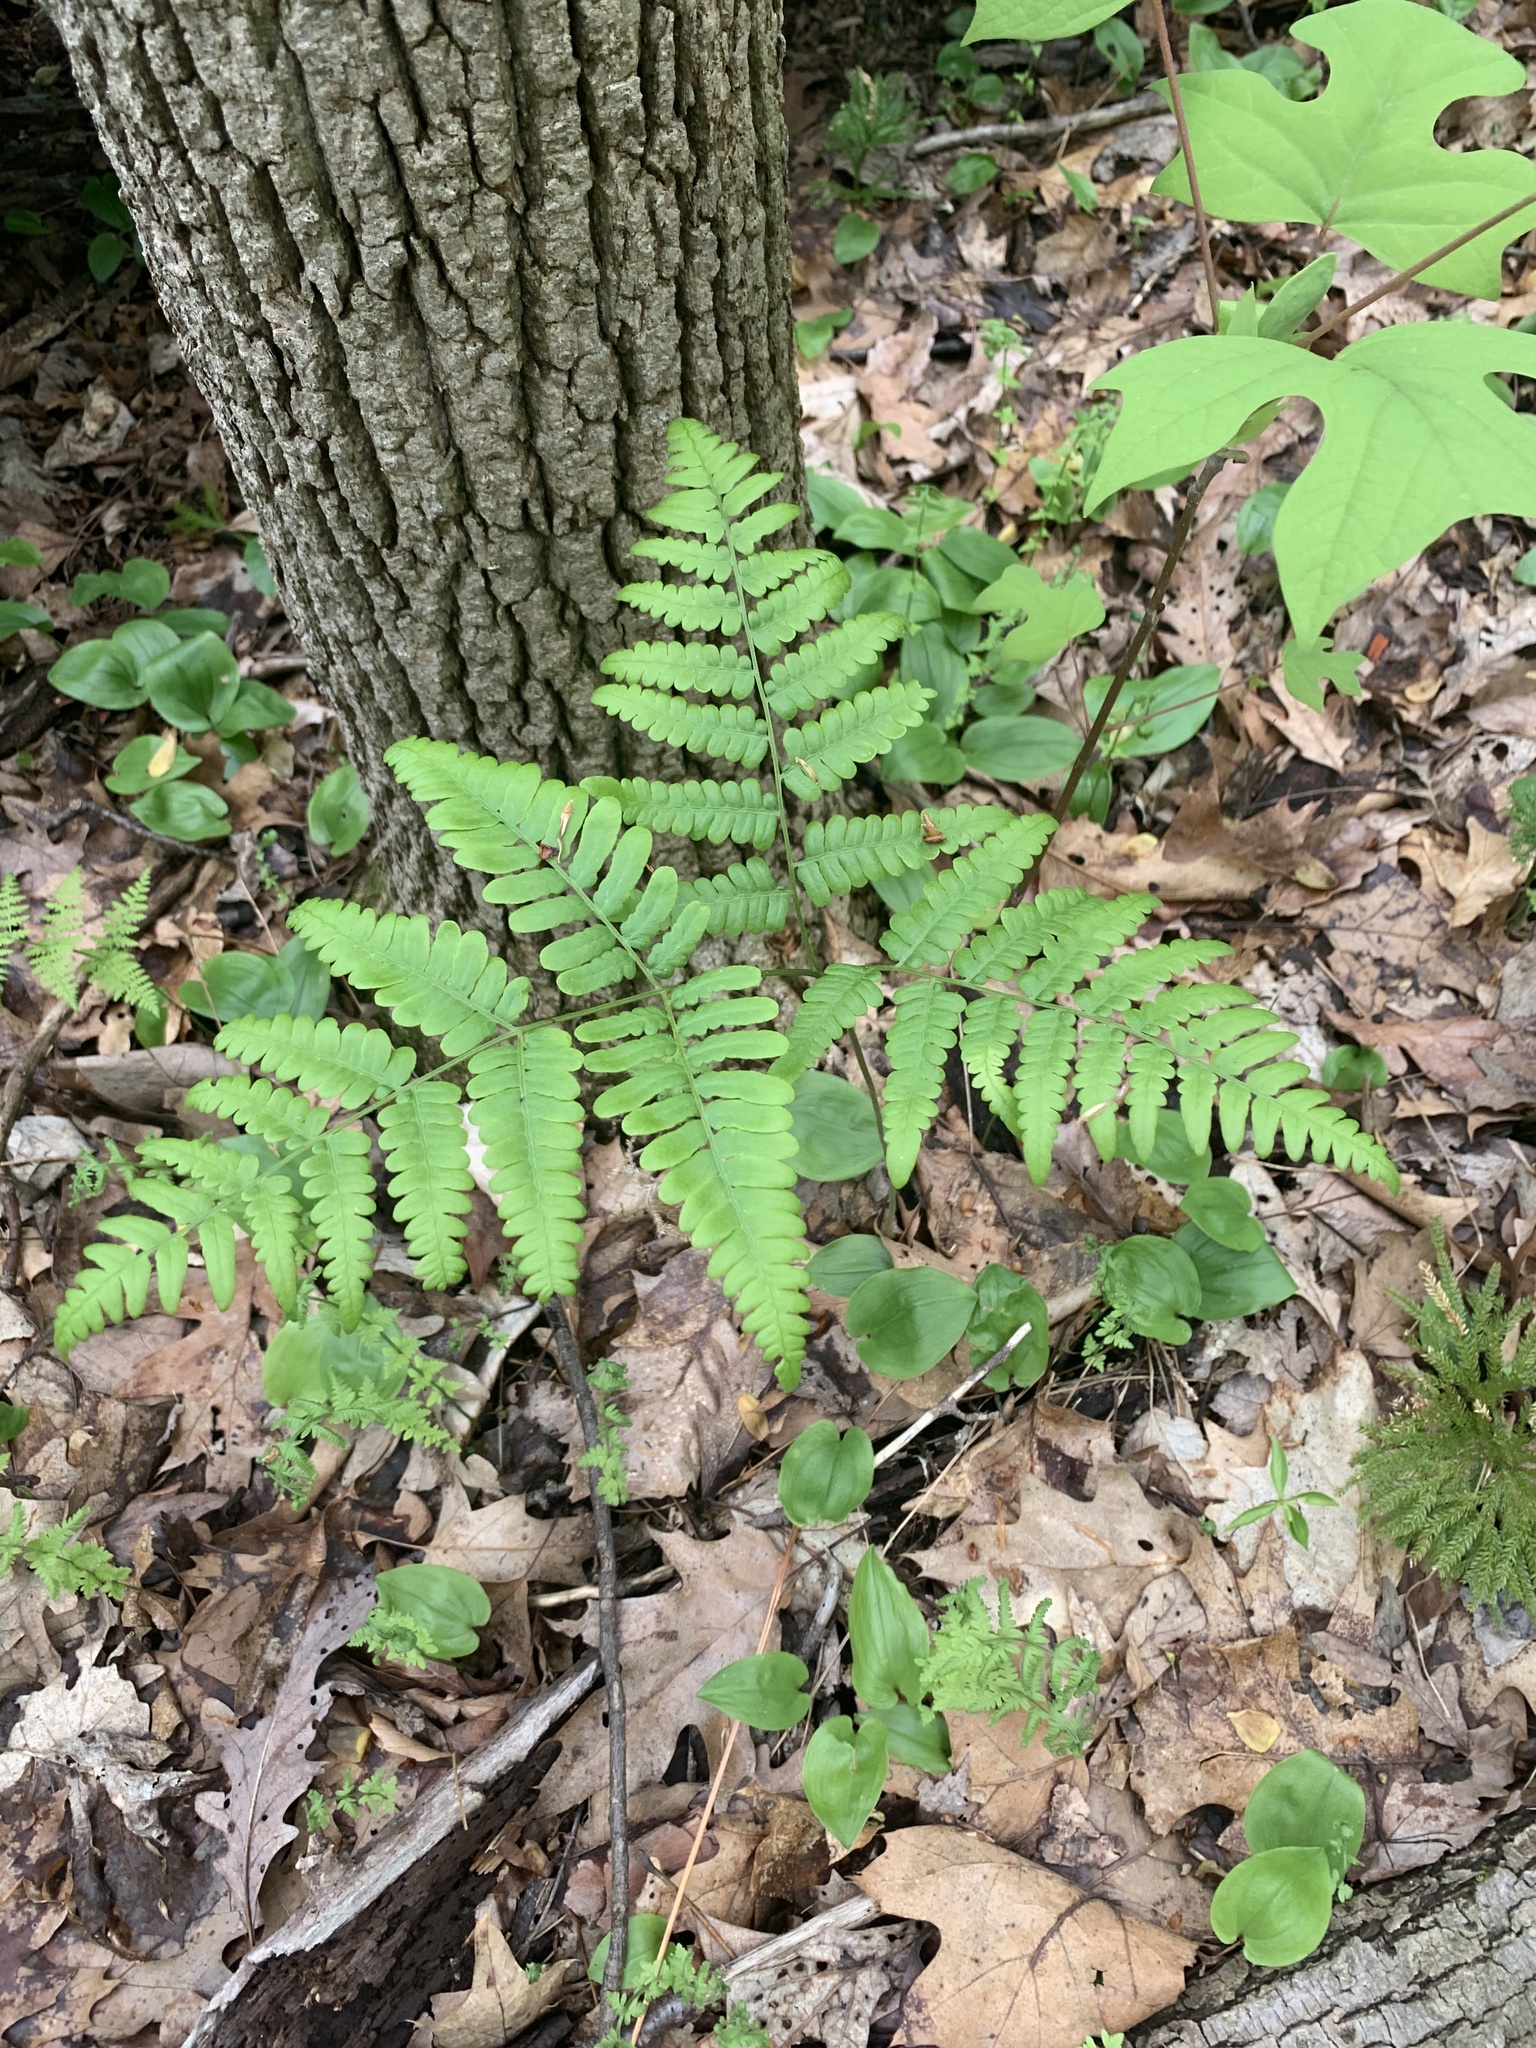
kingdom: Plantae
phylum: Tracheophyta
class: Polypodiopsida
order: Polypodiales
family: Dennstaedtiaceae
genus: Pteridium
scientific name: Pteridium aquilinum
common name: Bracken
